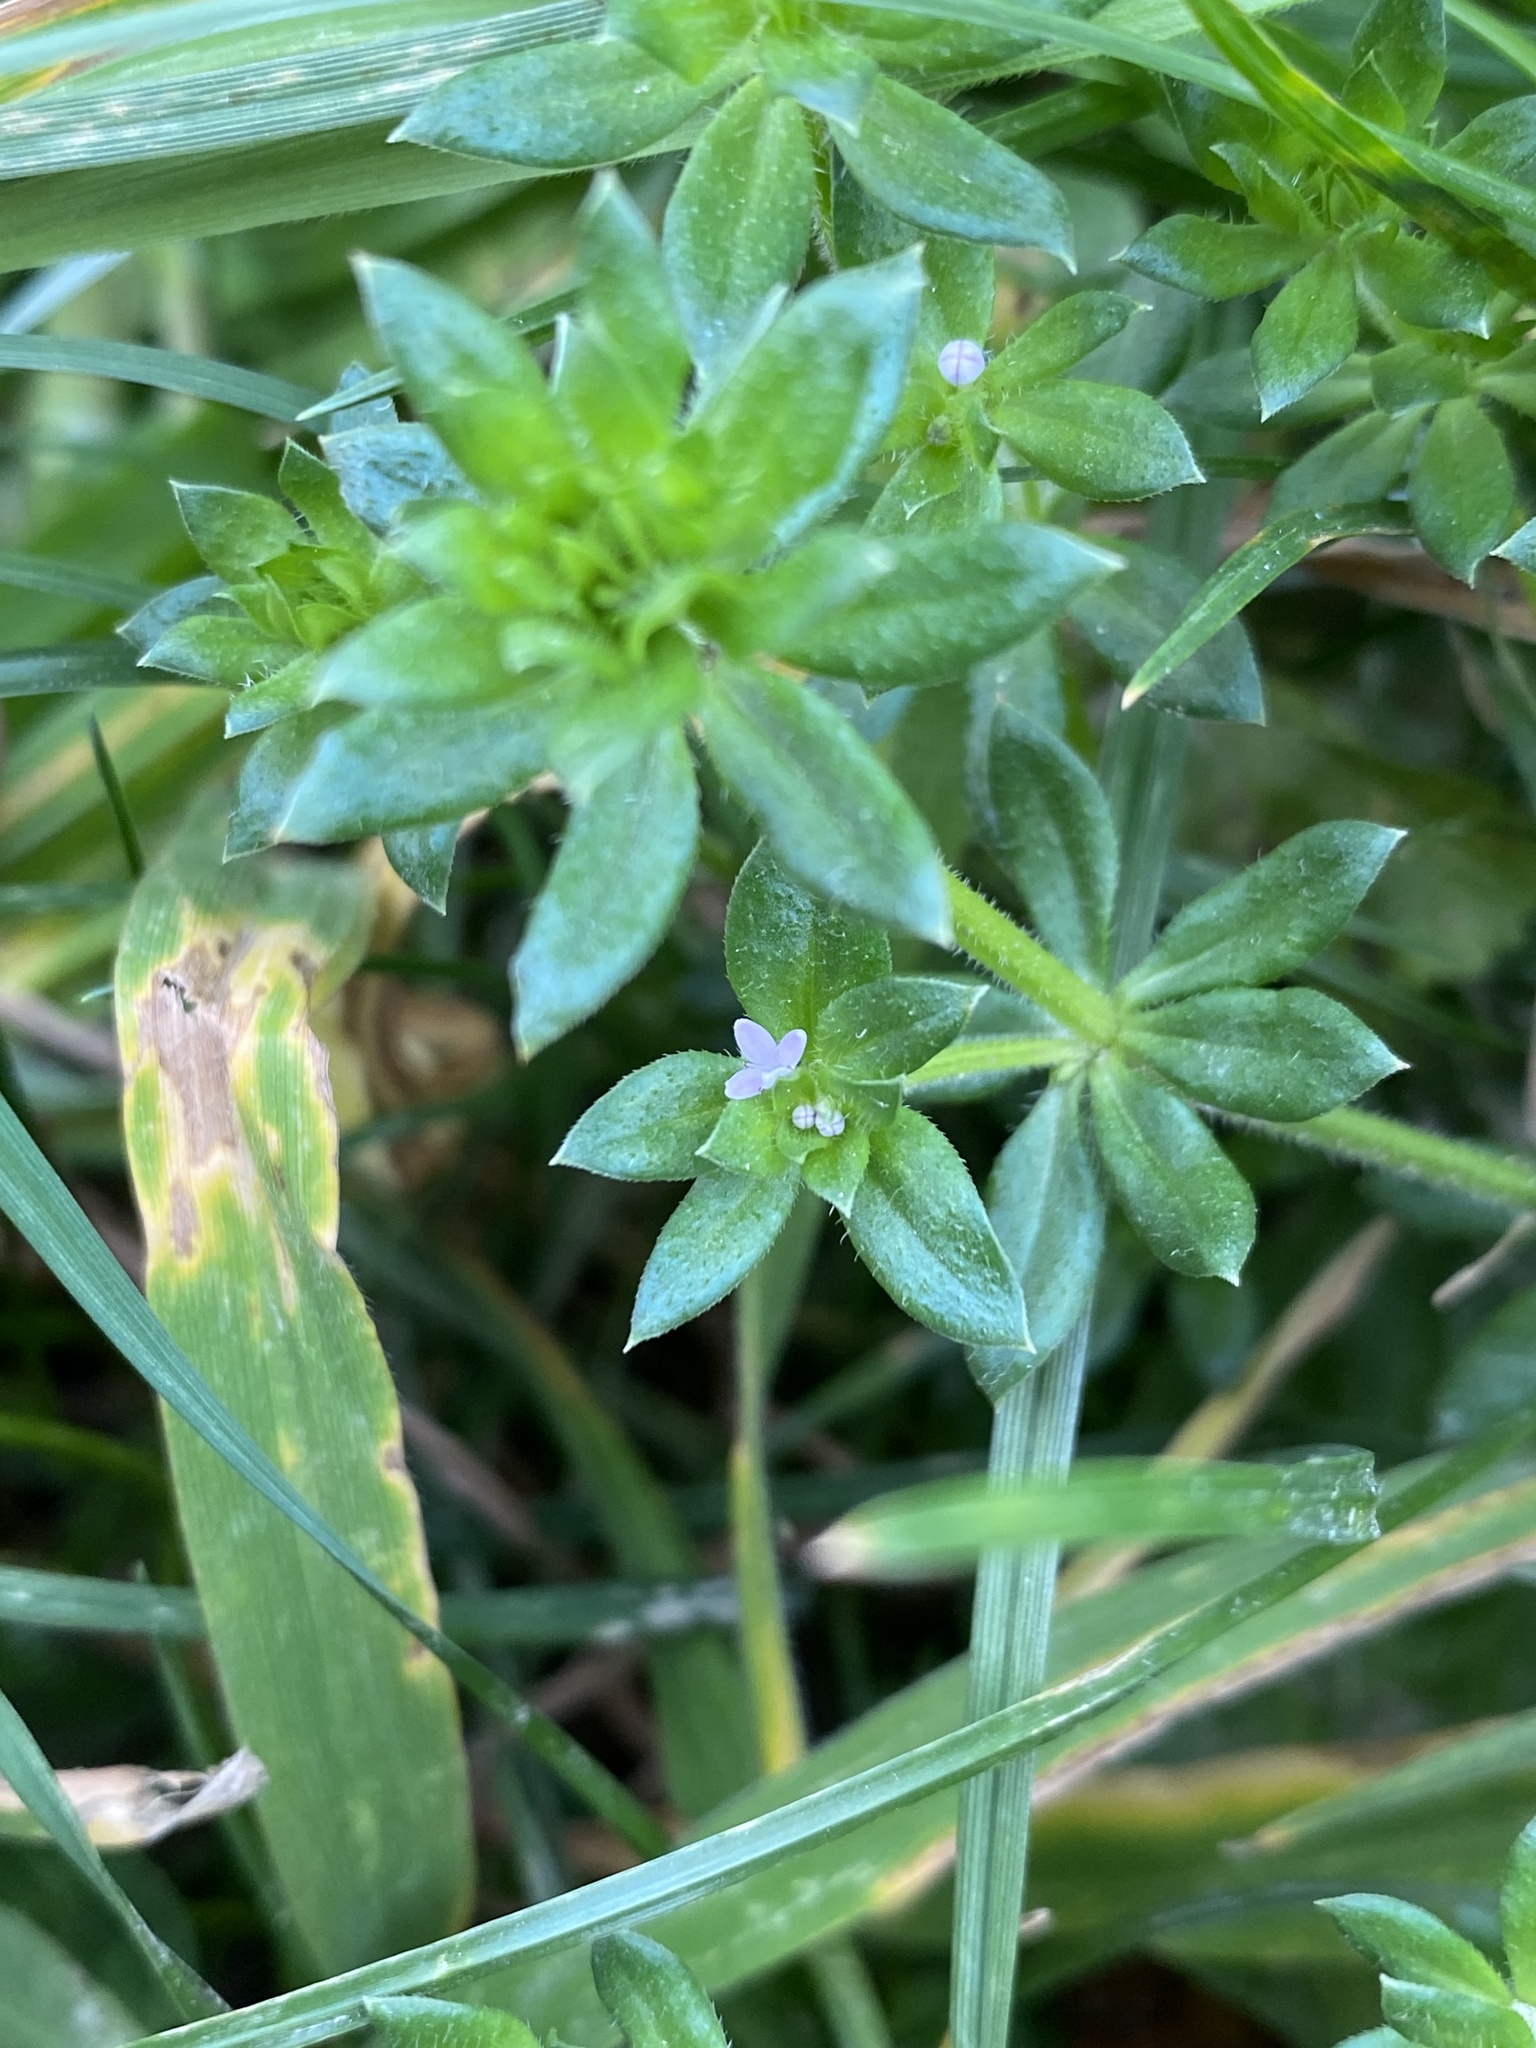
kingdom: Plantae
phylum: Tracheophyta
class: Magnoliopsida
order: Gentianales
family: Rubiaceae
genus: Sherardia
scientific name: Sherardia arvensis
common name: Field madder
